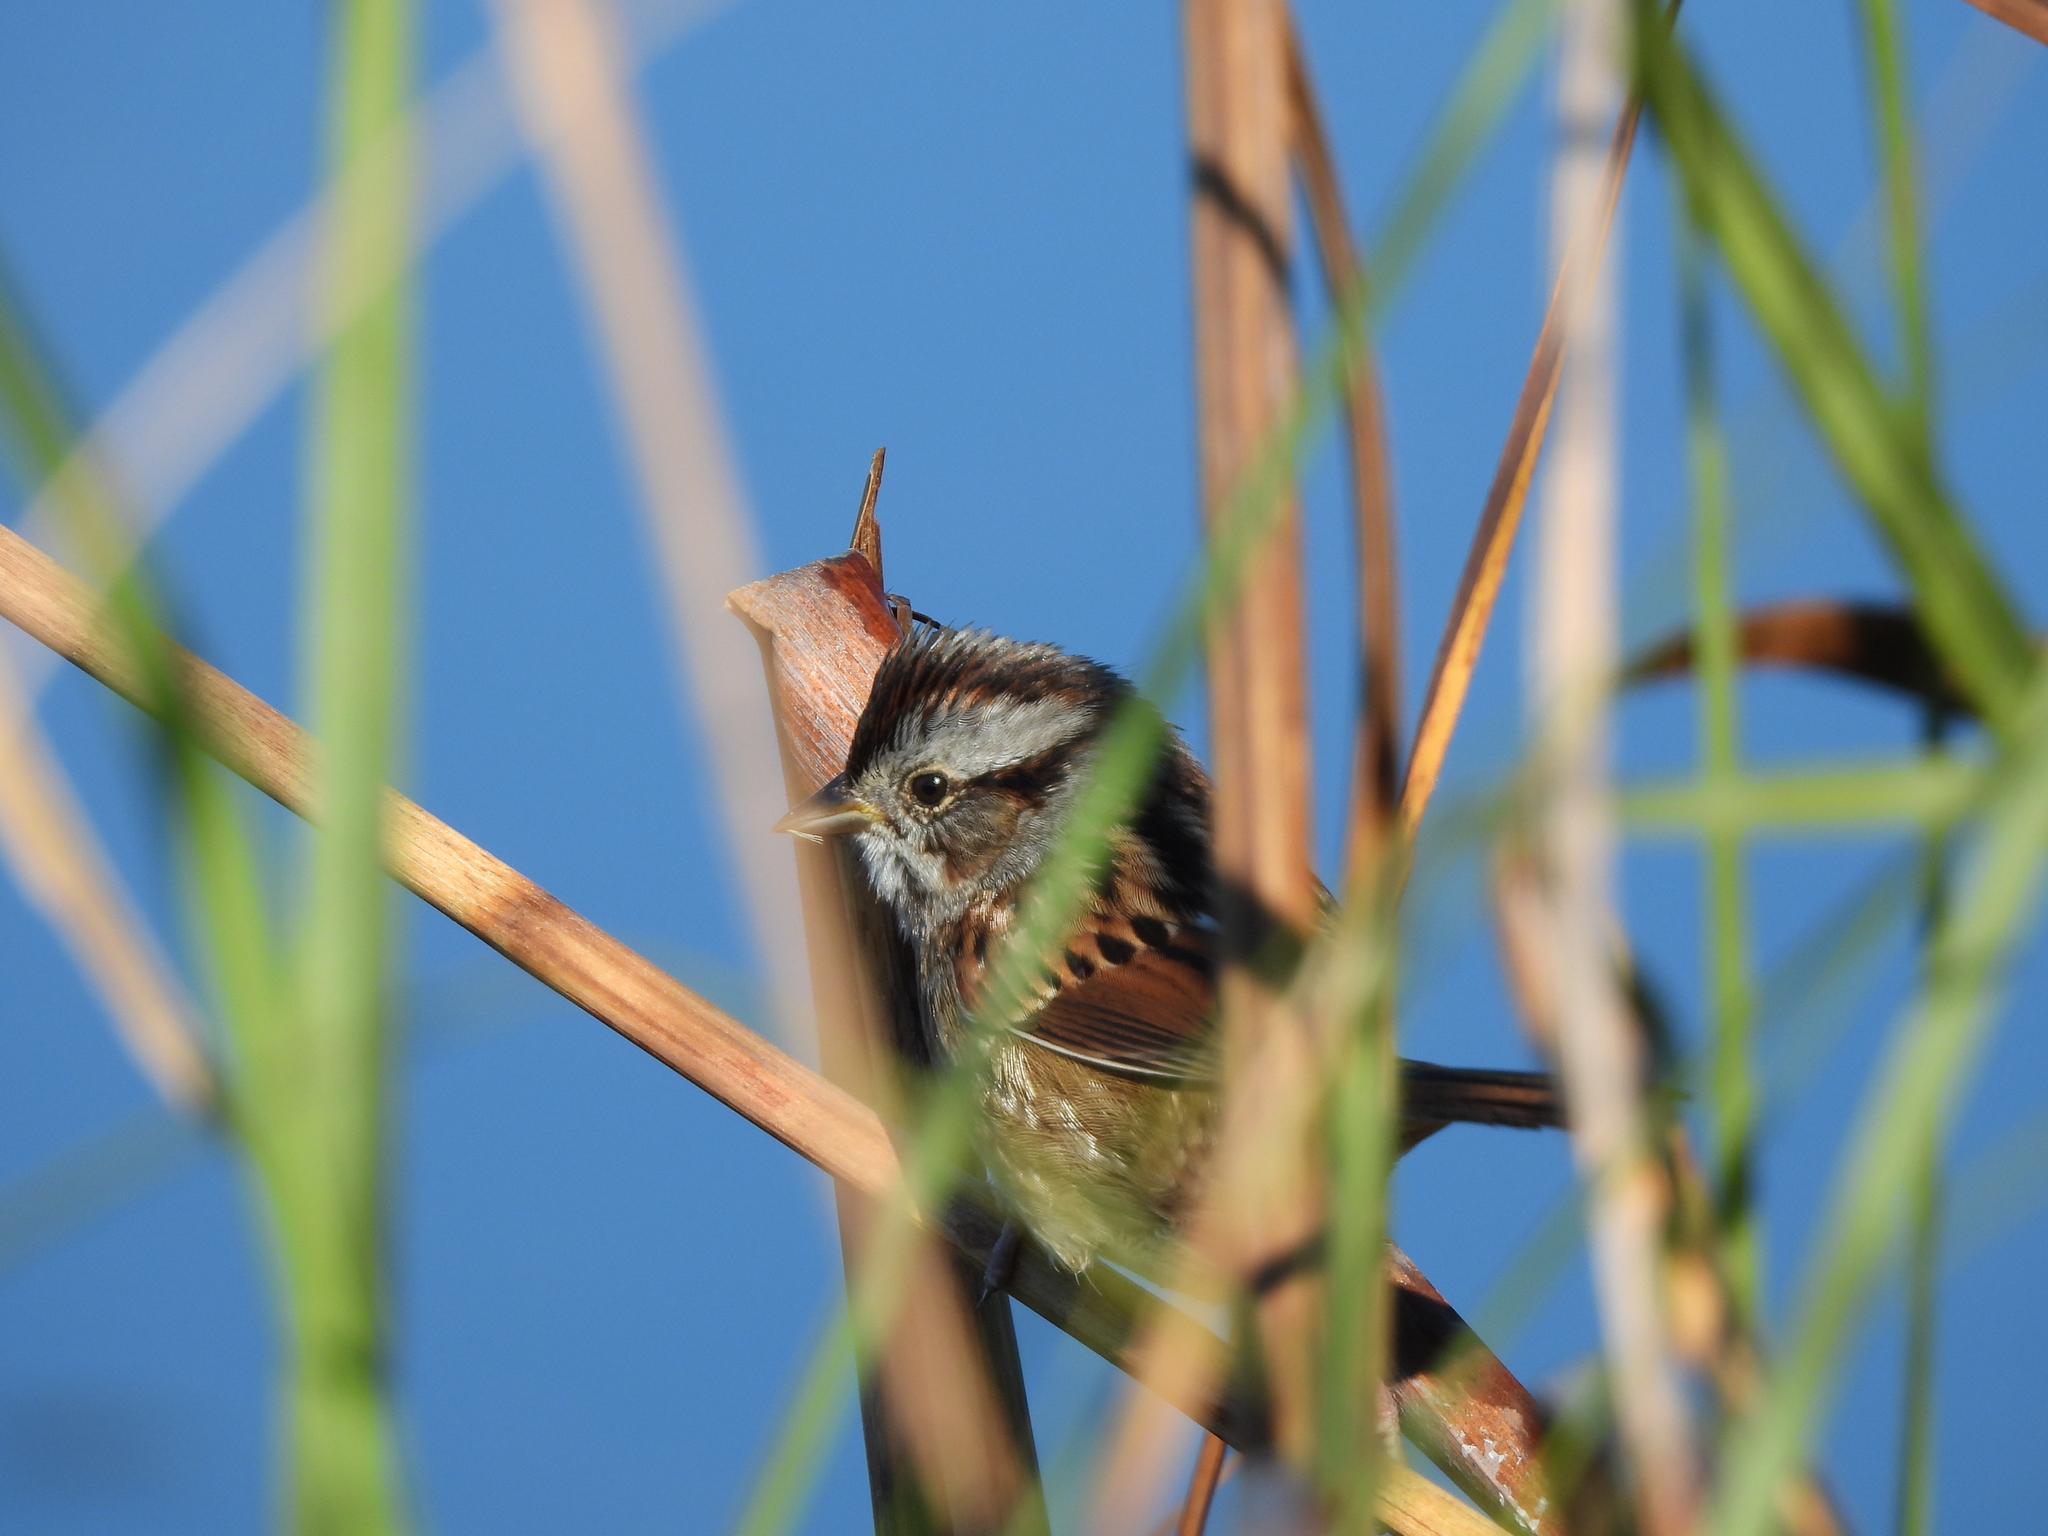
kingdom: Animalia
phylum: Chordata
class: Aves
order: Passeriformes
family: Passerellidae
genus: Melospiza
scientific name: Melospiza georgiana
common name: Swamp sparrow
